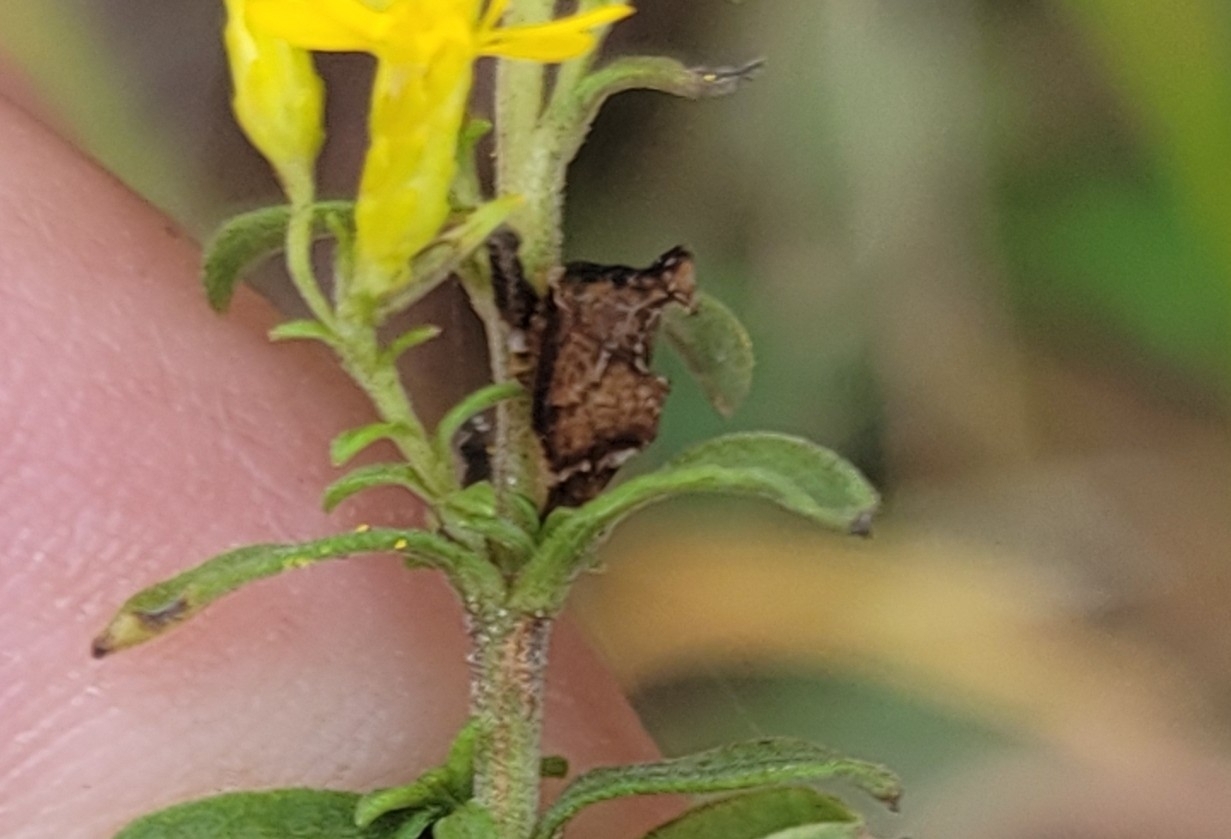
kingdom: Animalia
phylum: Arthropoda
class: Insecta
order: Hemiptera
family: Membracidae
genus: Entylia
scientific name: Entylia carinata
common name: Keeled treehopper
